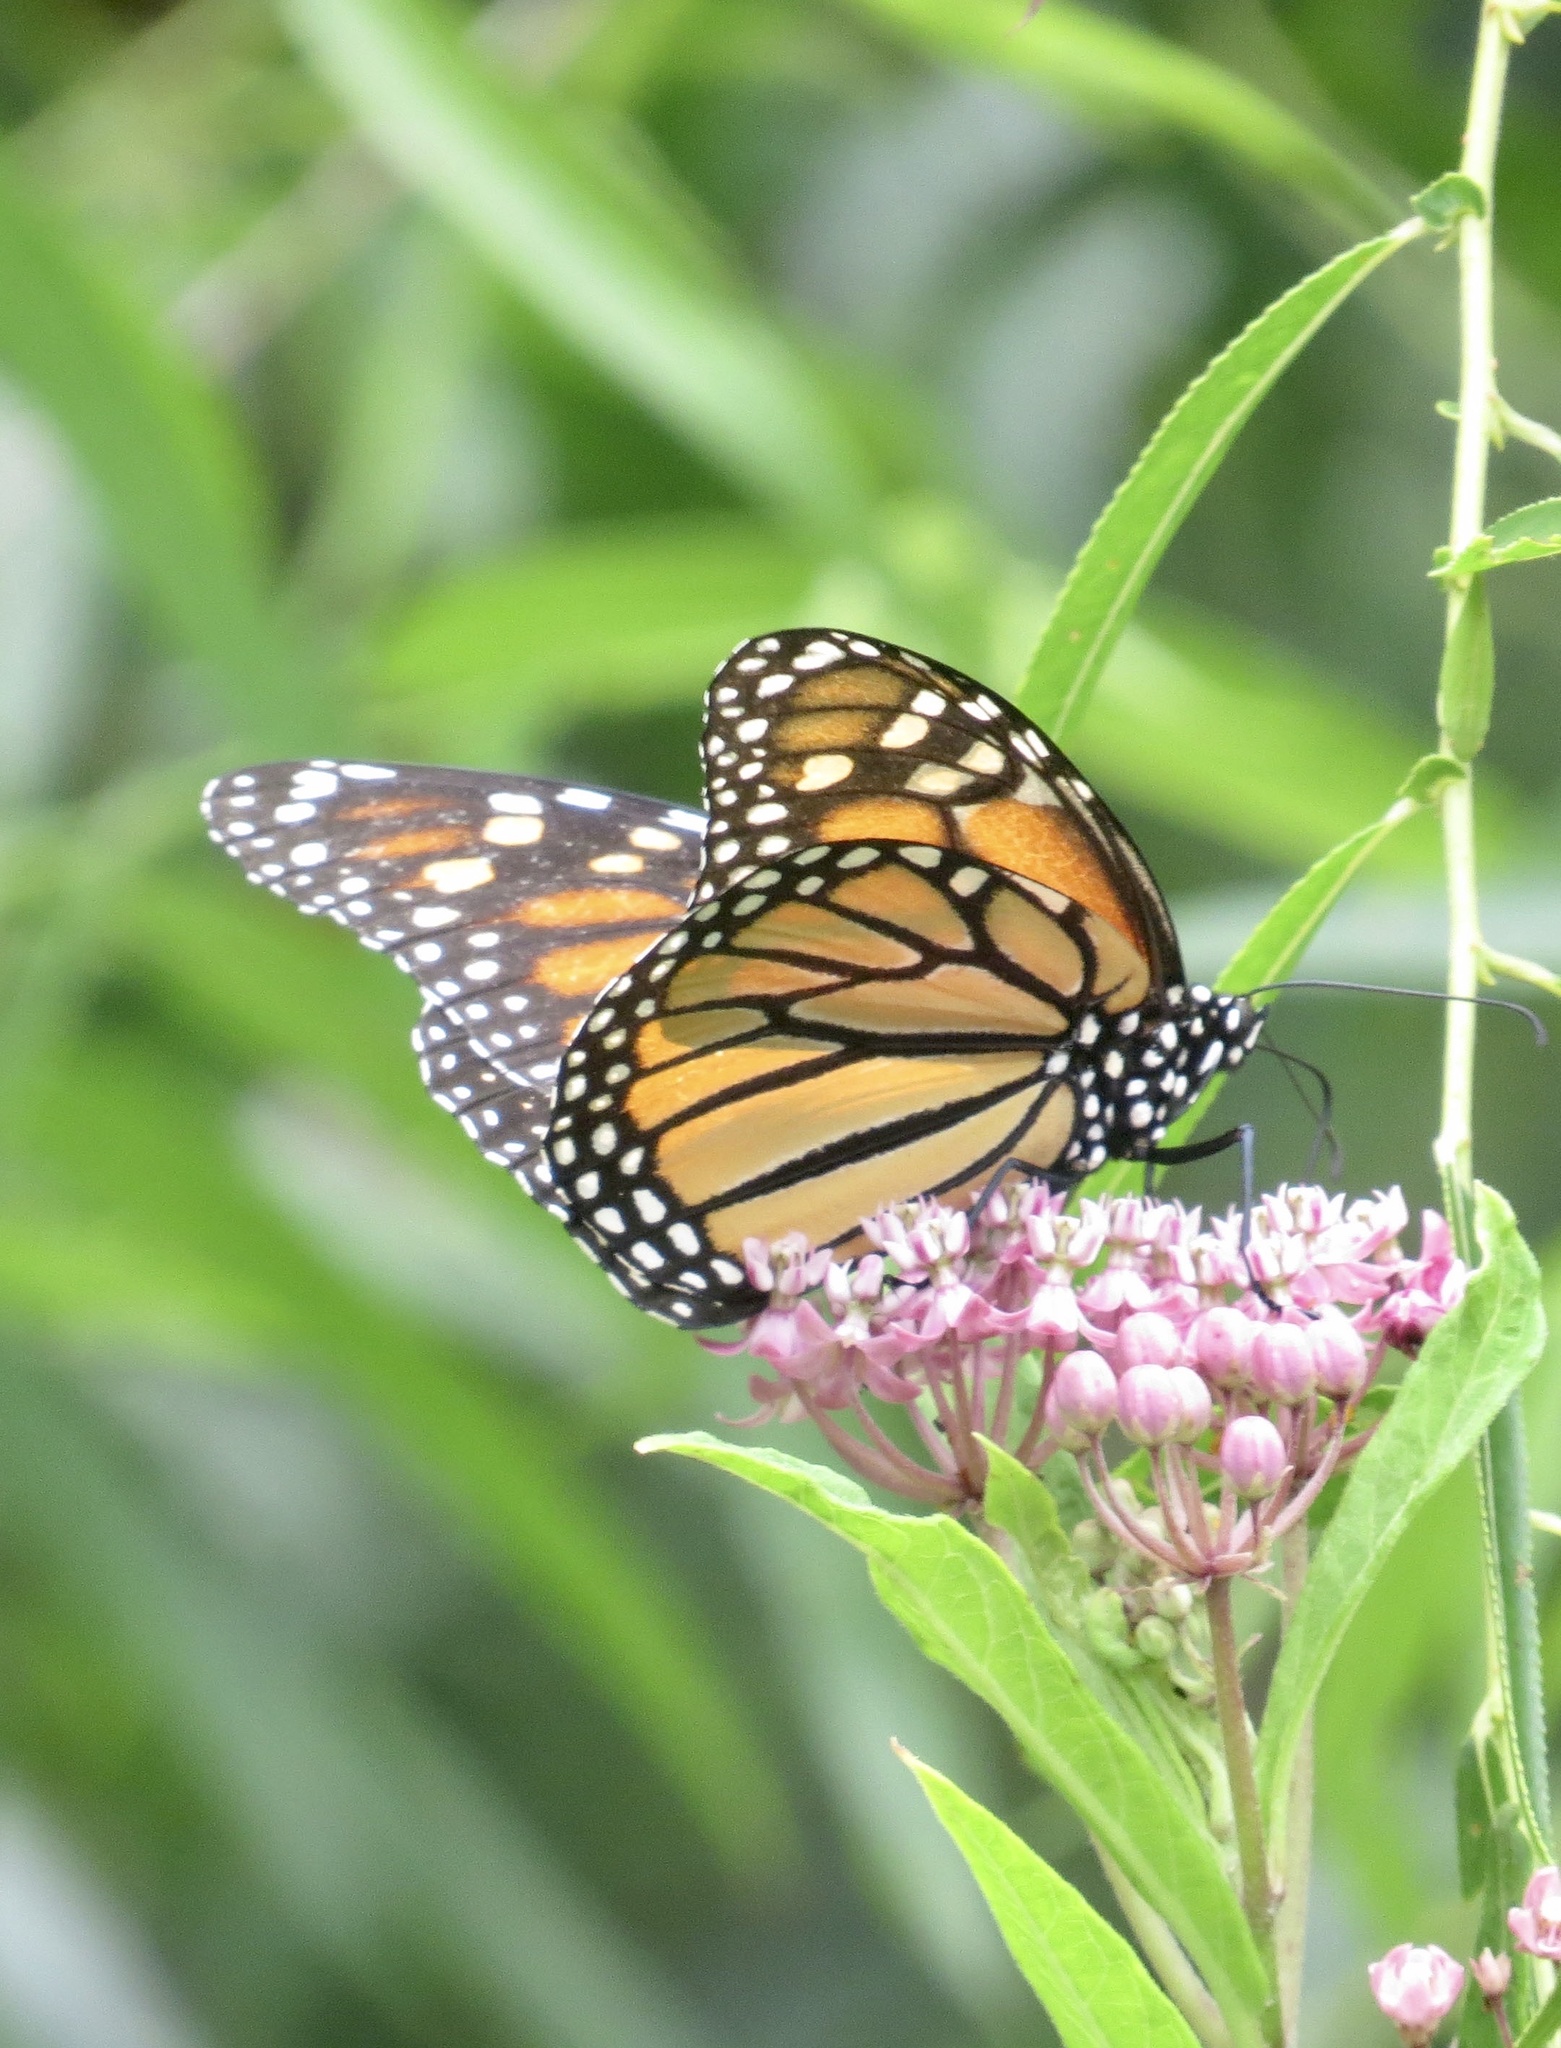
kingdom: Animalia
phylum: Arthropoda
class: Insecta
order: Lepidoptera
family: Nymphalidae
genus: Danaus
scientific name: Danaus plexippus
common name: Monarch
